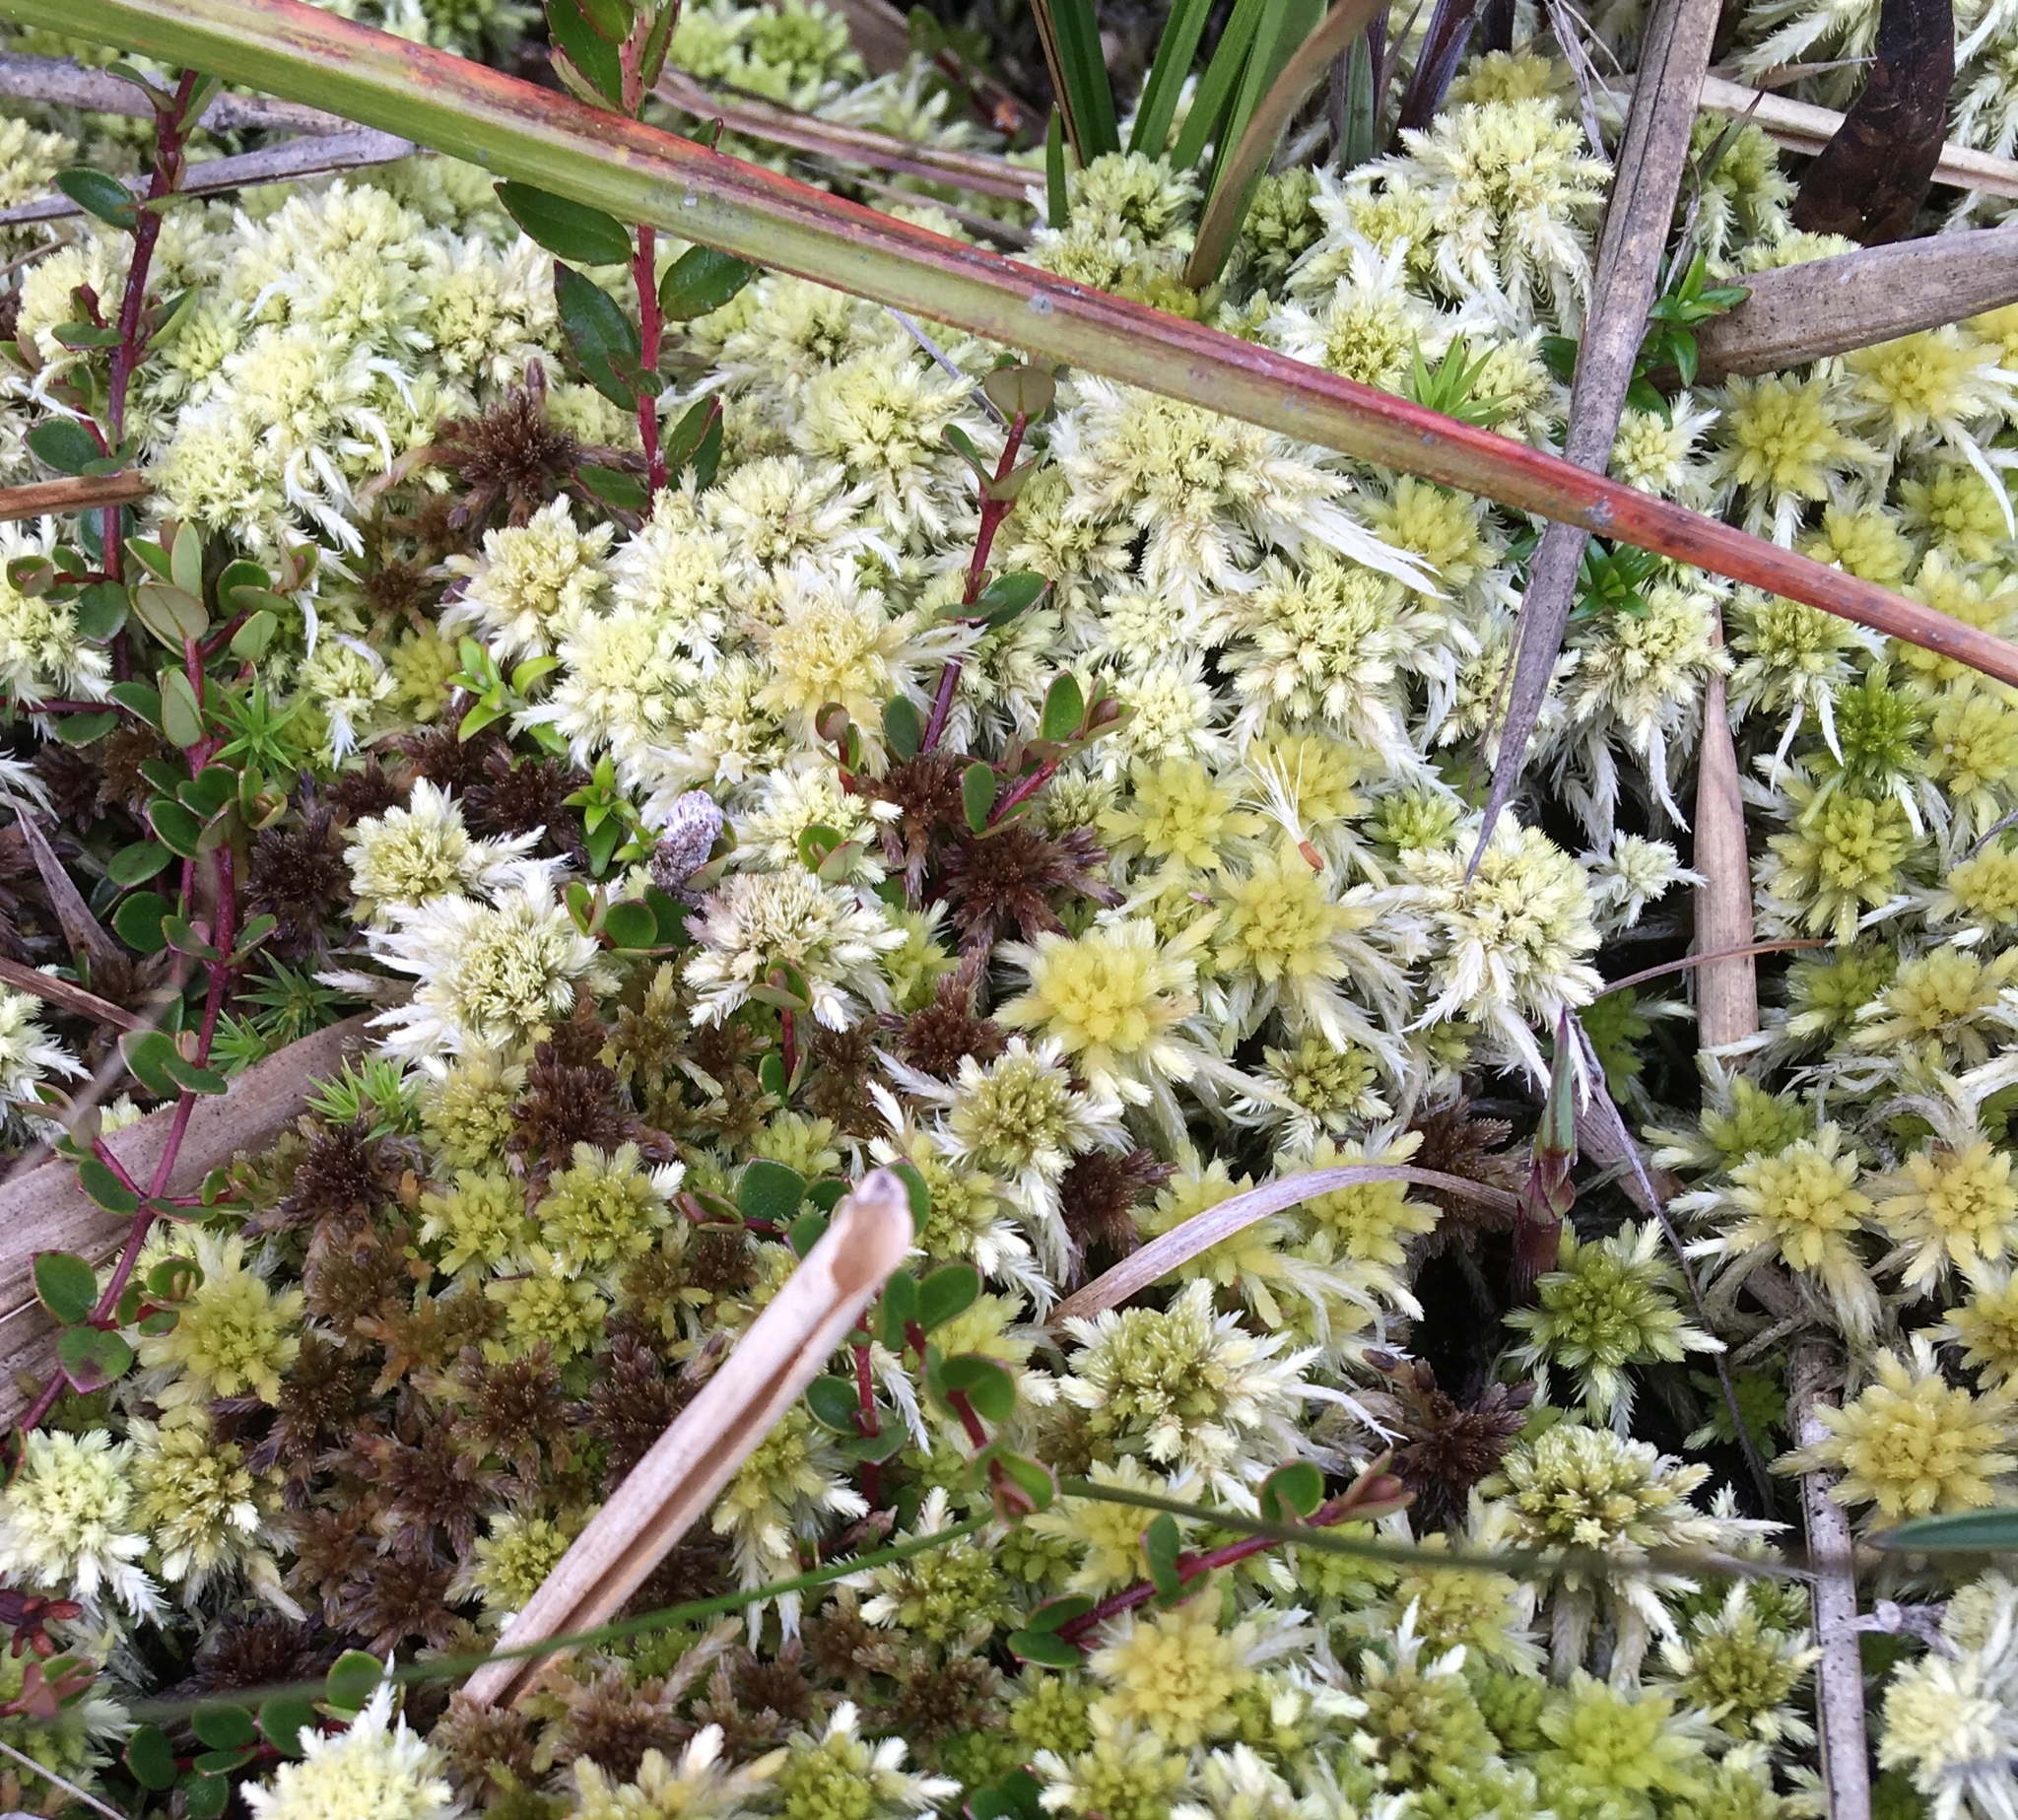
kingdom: Plantae
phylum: Bryophyta
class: Sphagnopsida
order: Sphagnales
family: Sphagnaceae
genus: Sphagnum
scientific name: Sphagnum magellanicum
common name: Magellan's peat moss
